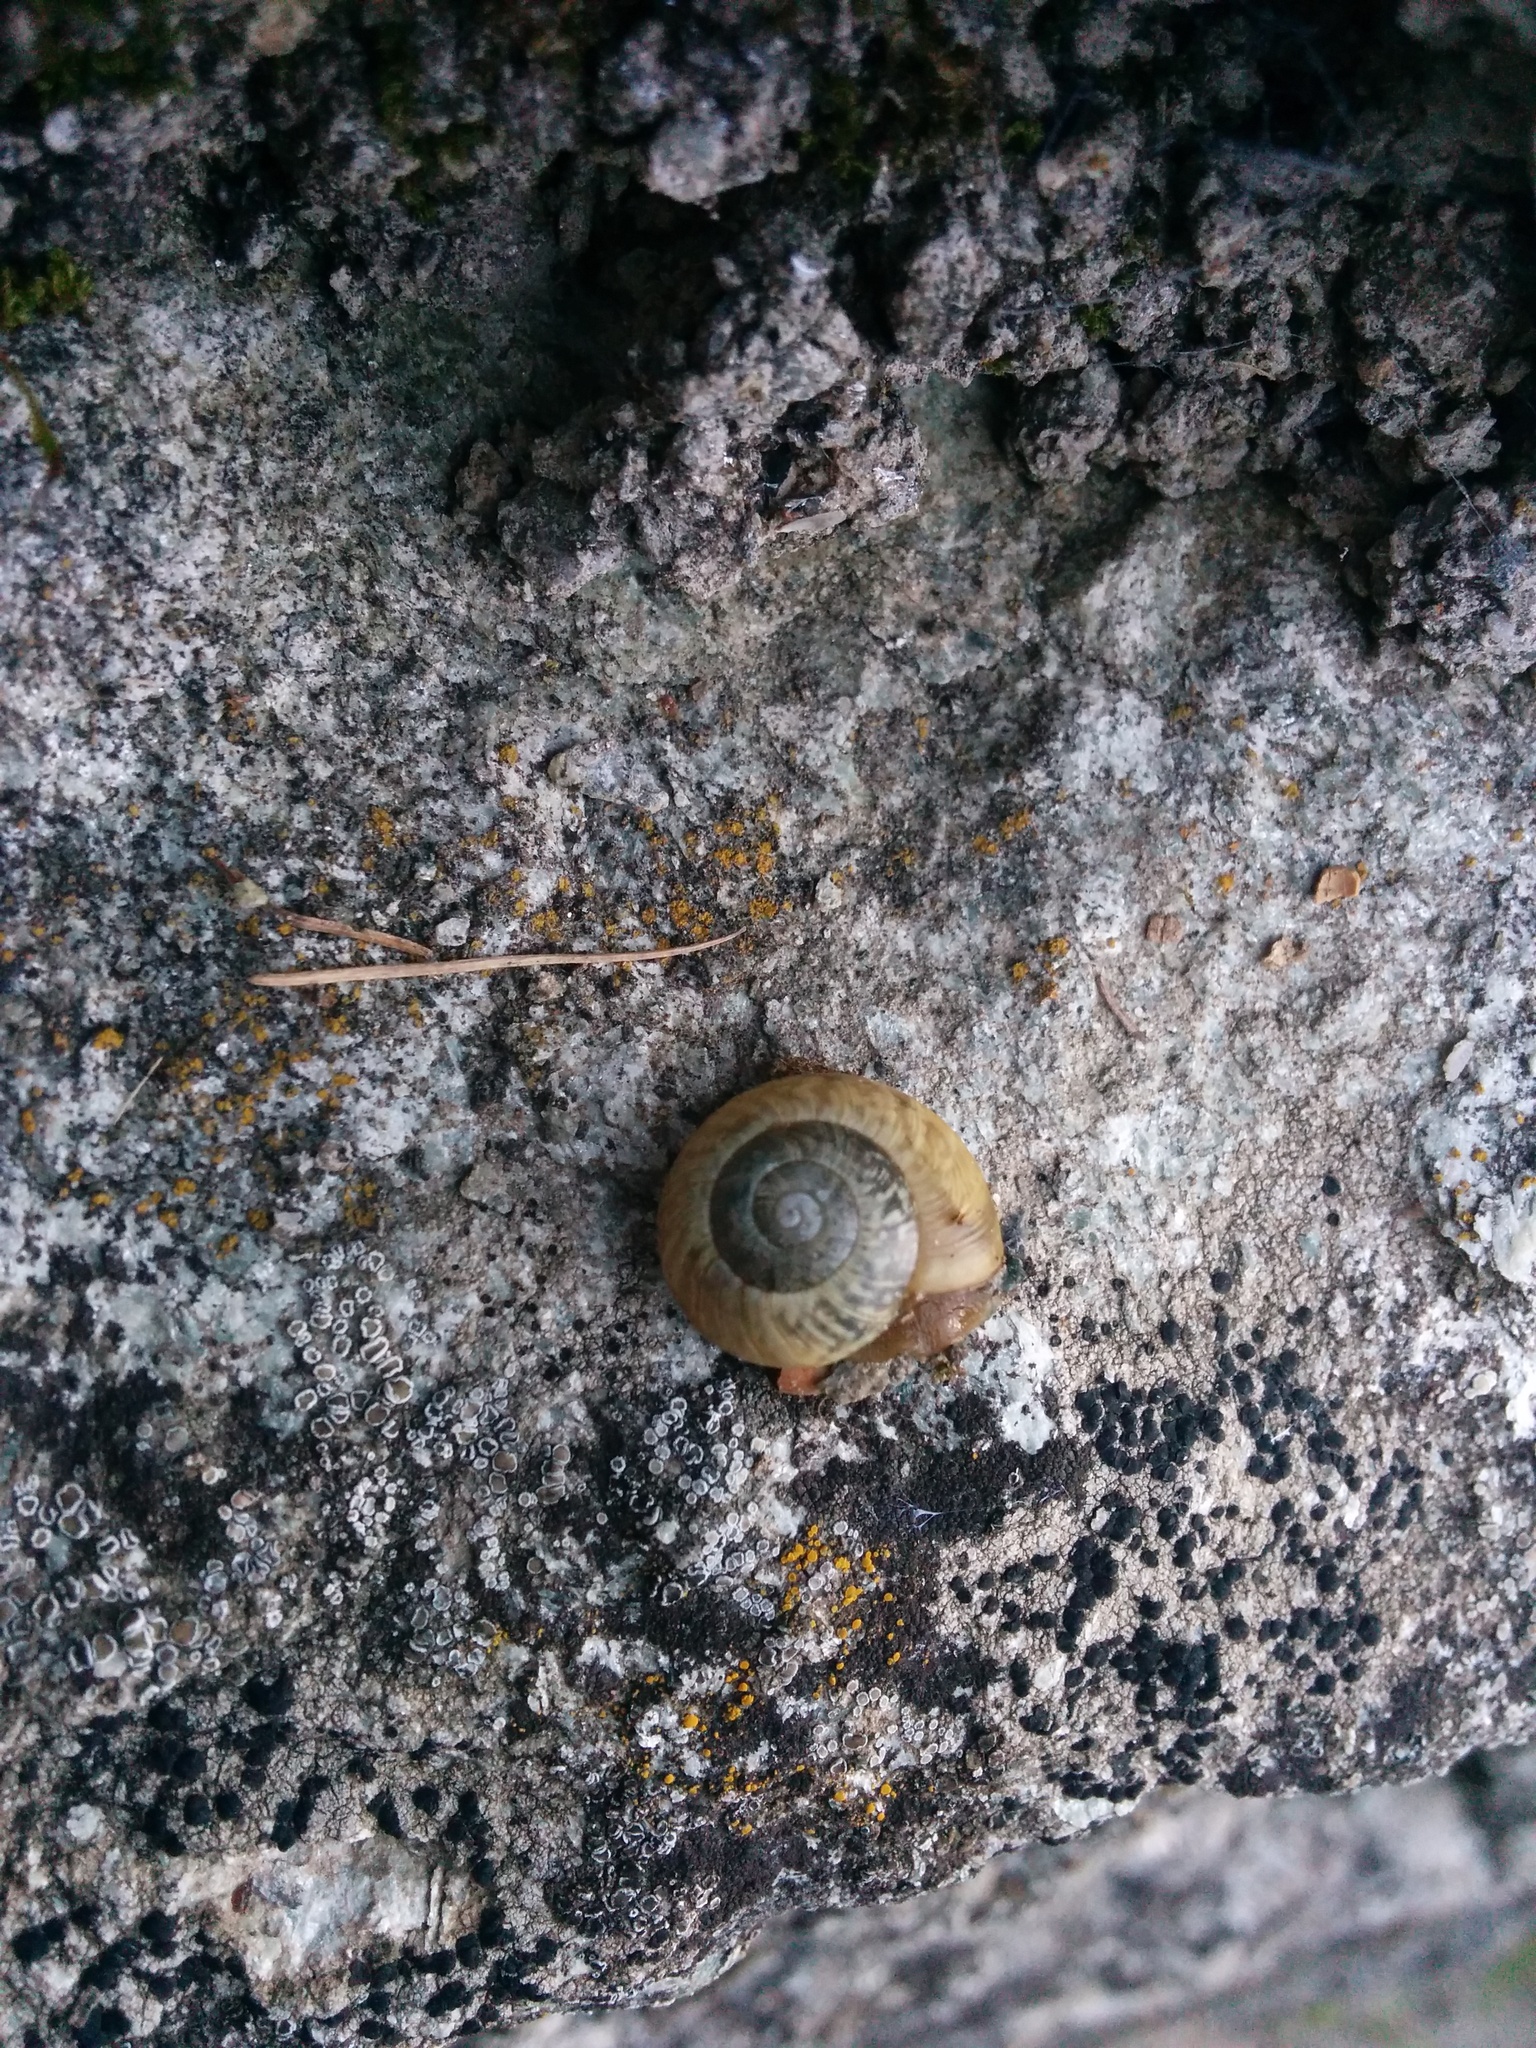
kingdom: Animalia
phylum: Mollusca
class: Gastropoda
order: Stylommatophora
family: Helicidae
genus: Arianta
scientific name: Arianta arbustorum
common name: Copse snail
